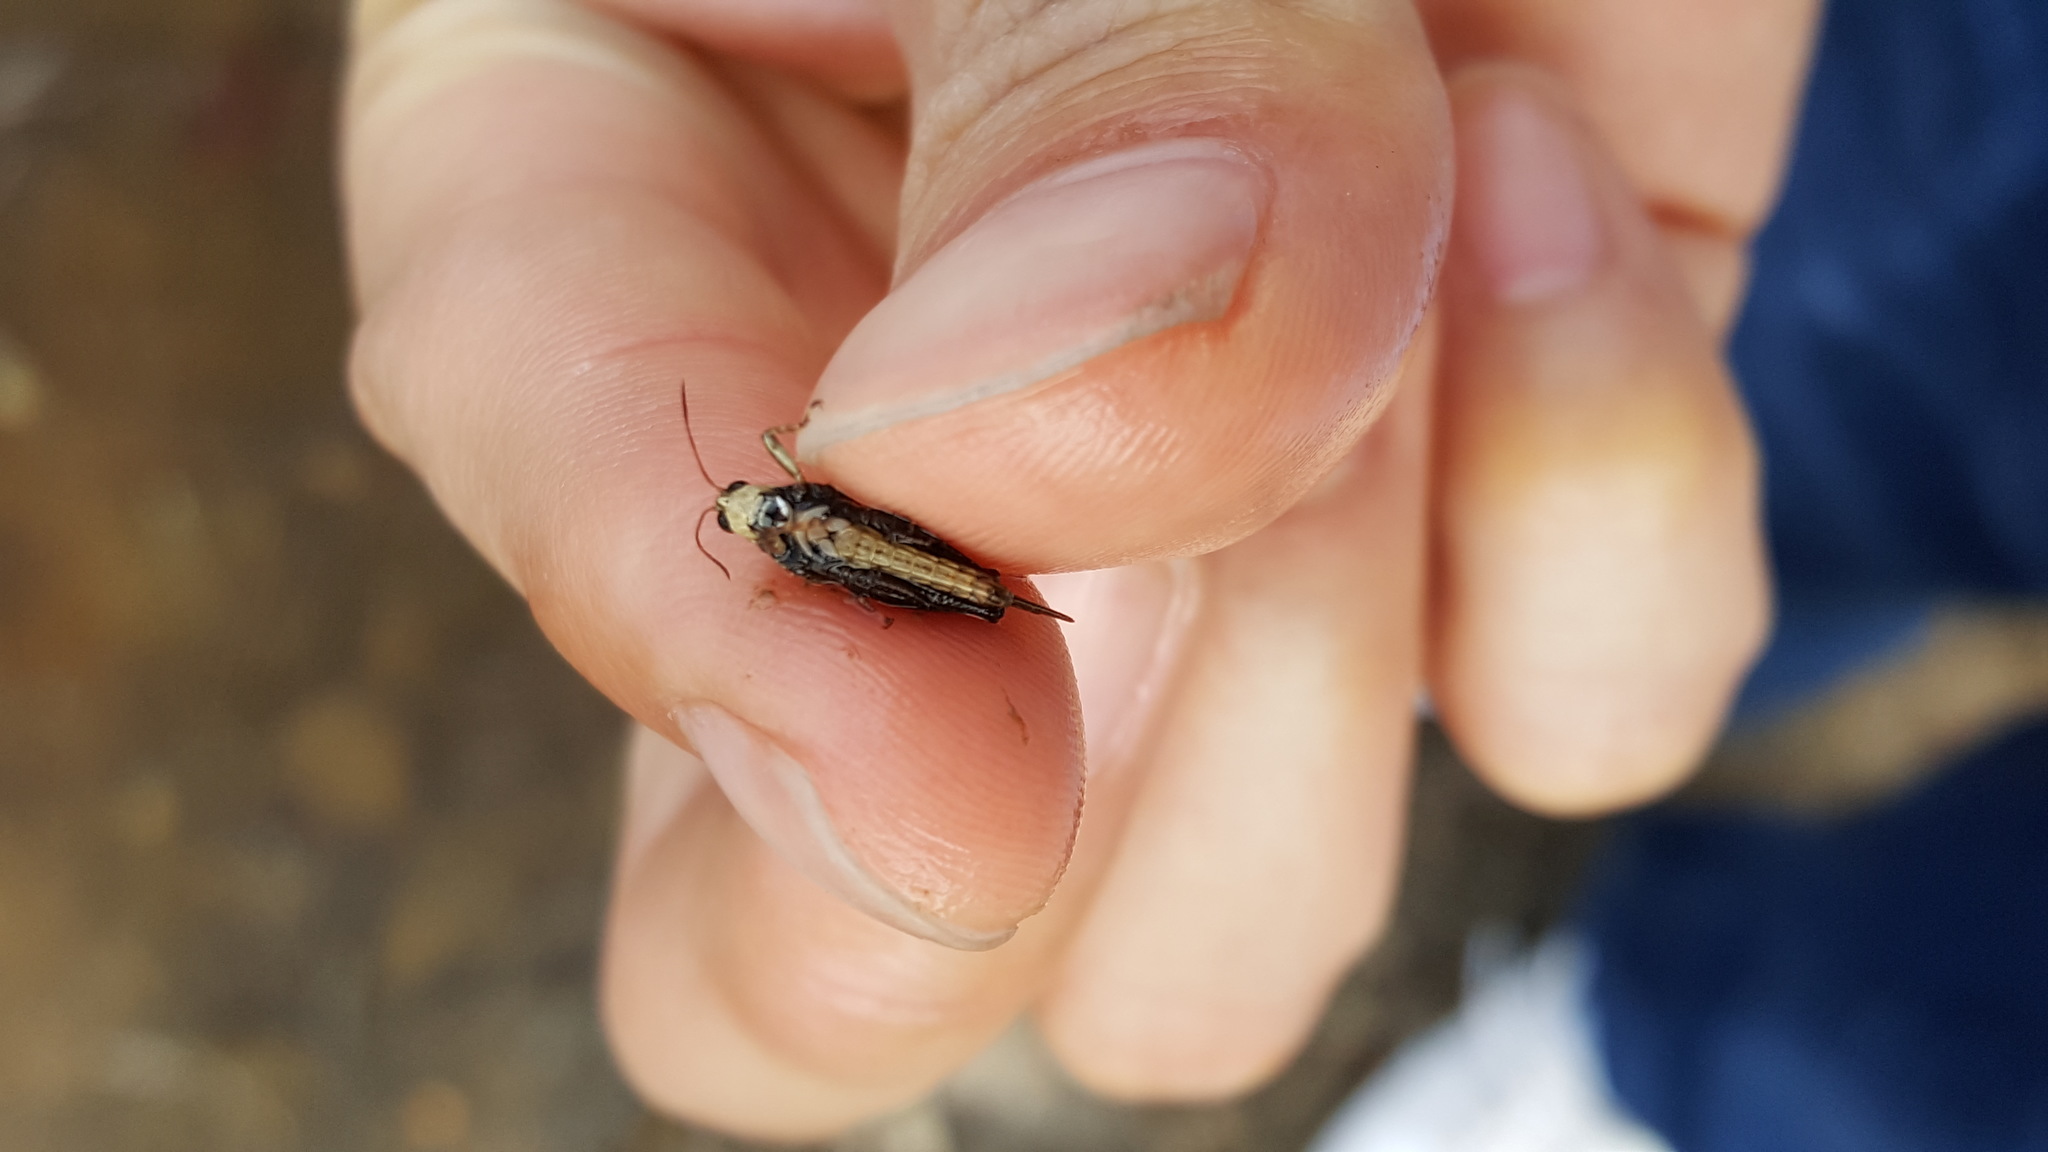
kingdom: Animalia
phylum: Arthropoda
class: Insecta
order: Orthoptera
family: Tetrigidae
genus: Tettigidea
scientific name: Tettigidea laterale
